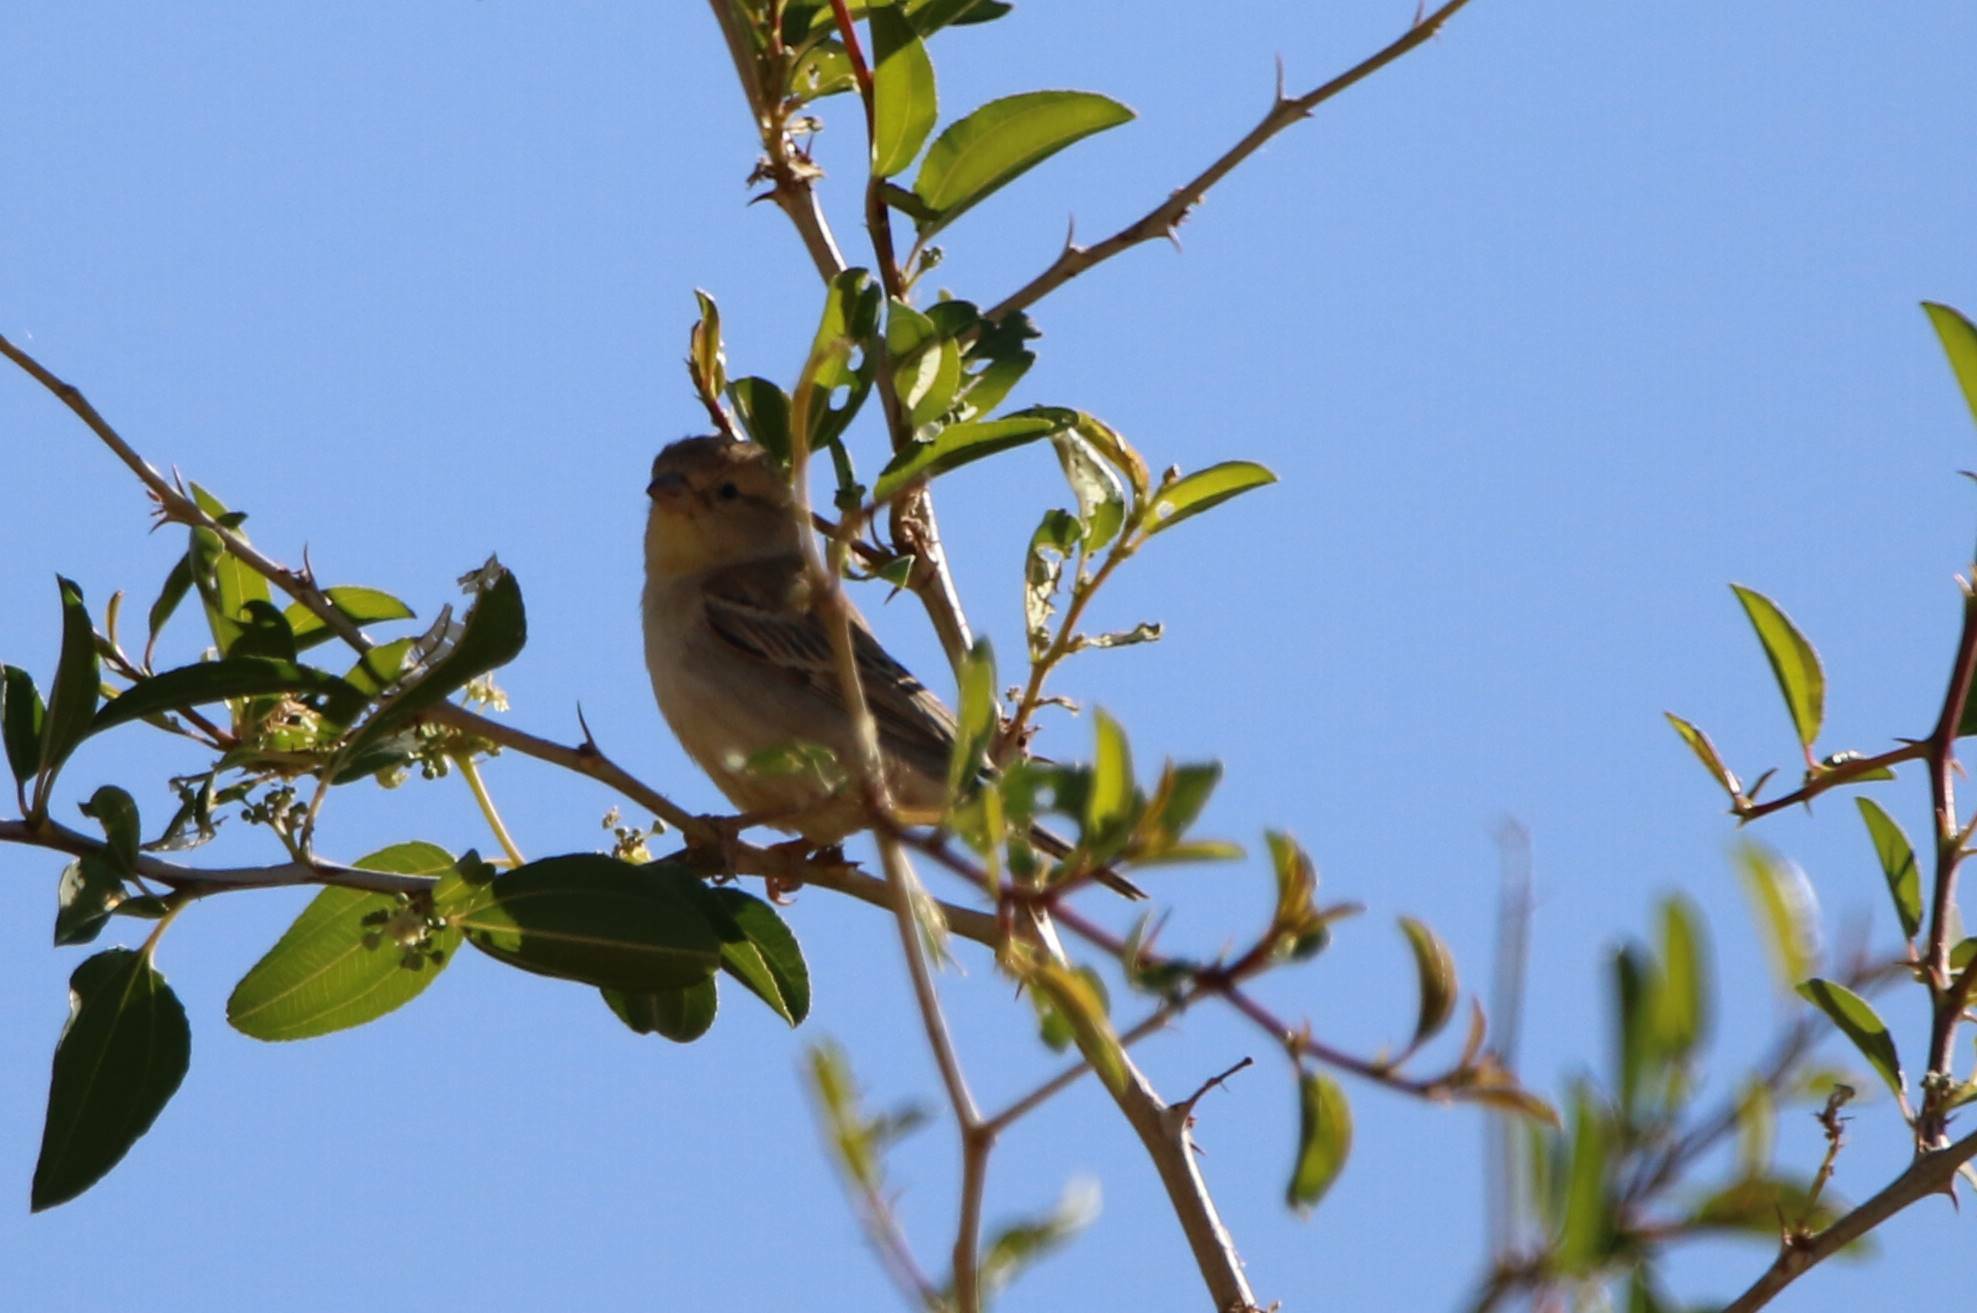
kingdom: Animalia
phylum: Chordata
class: Aves
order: Passeriformes
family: Passeridae
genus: Passer
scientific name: Passer luteus
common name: Sudan golden sparrow
